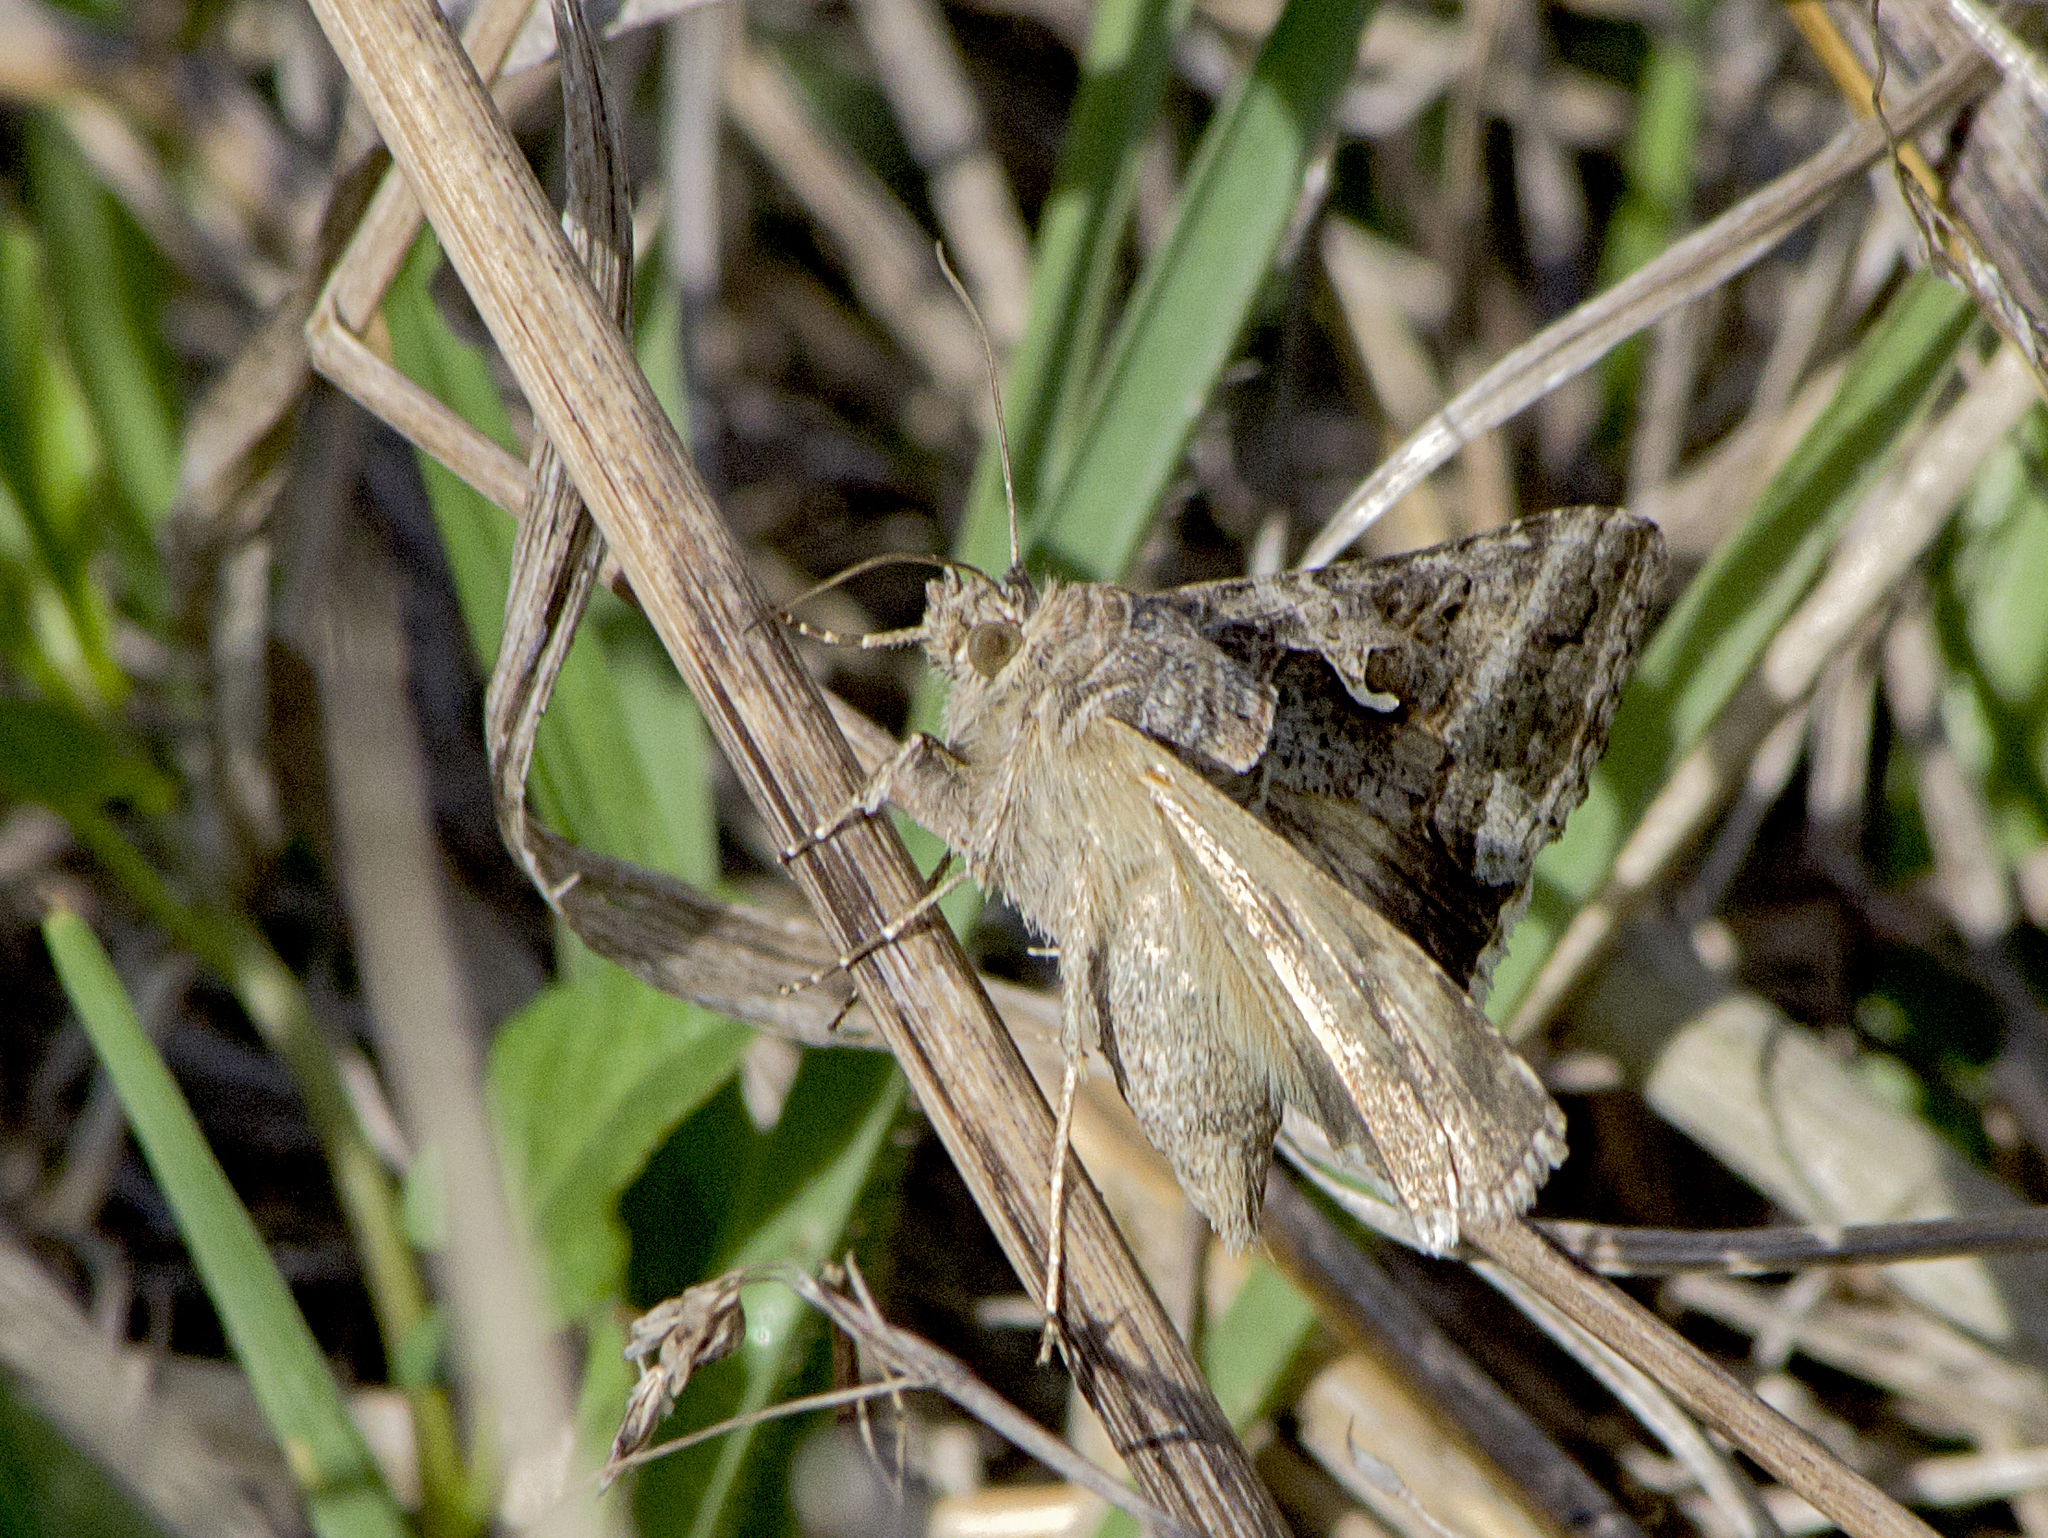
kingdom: Animalia
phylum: Arthropoda
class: Insecta
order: Lepidoptera
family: Noctuidae
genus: Autographa
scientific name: Autographa gamma
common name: Silver y
